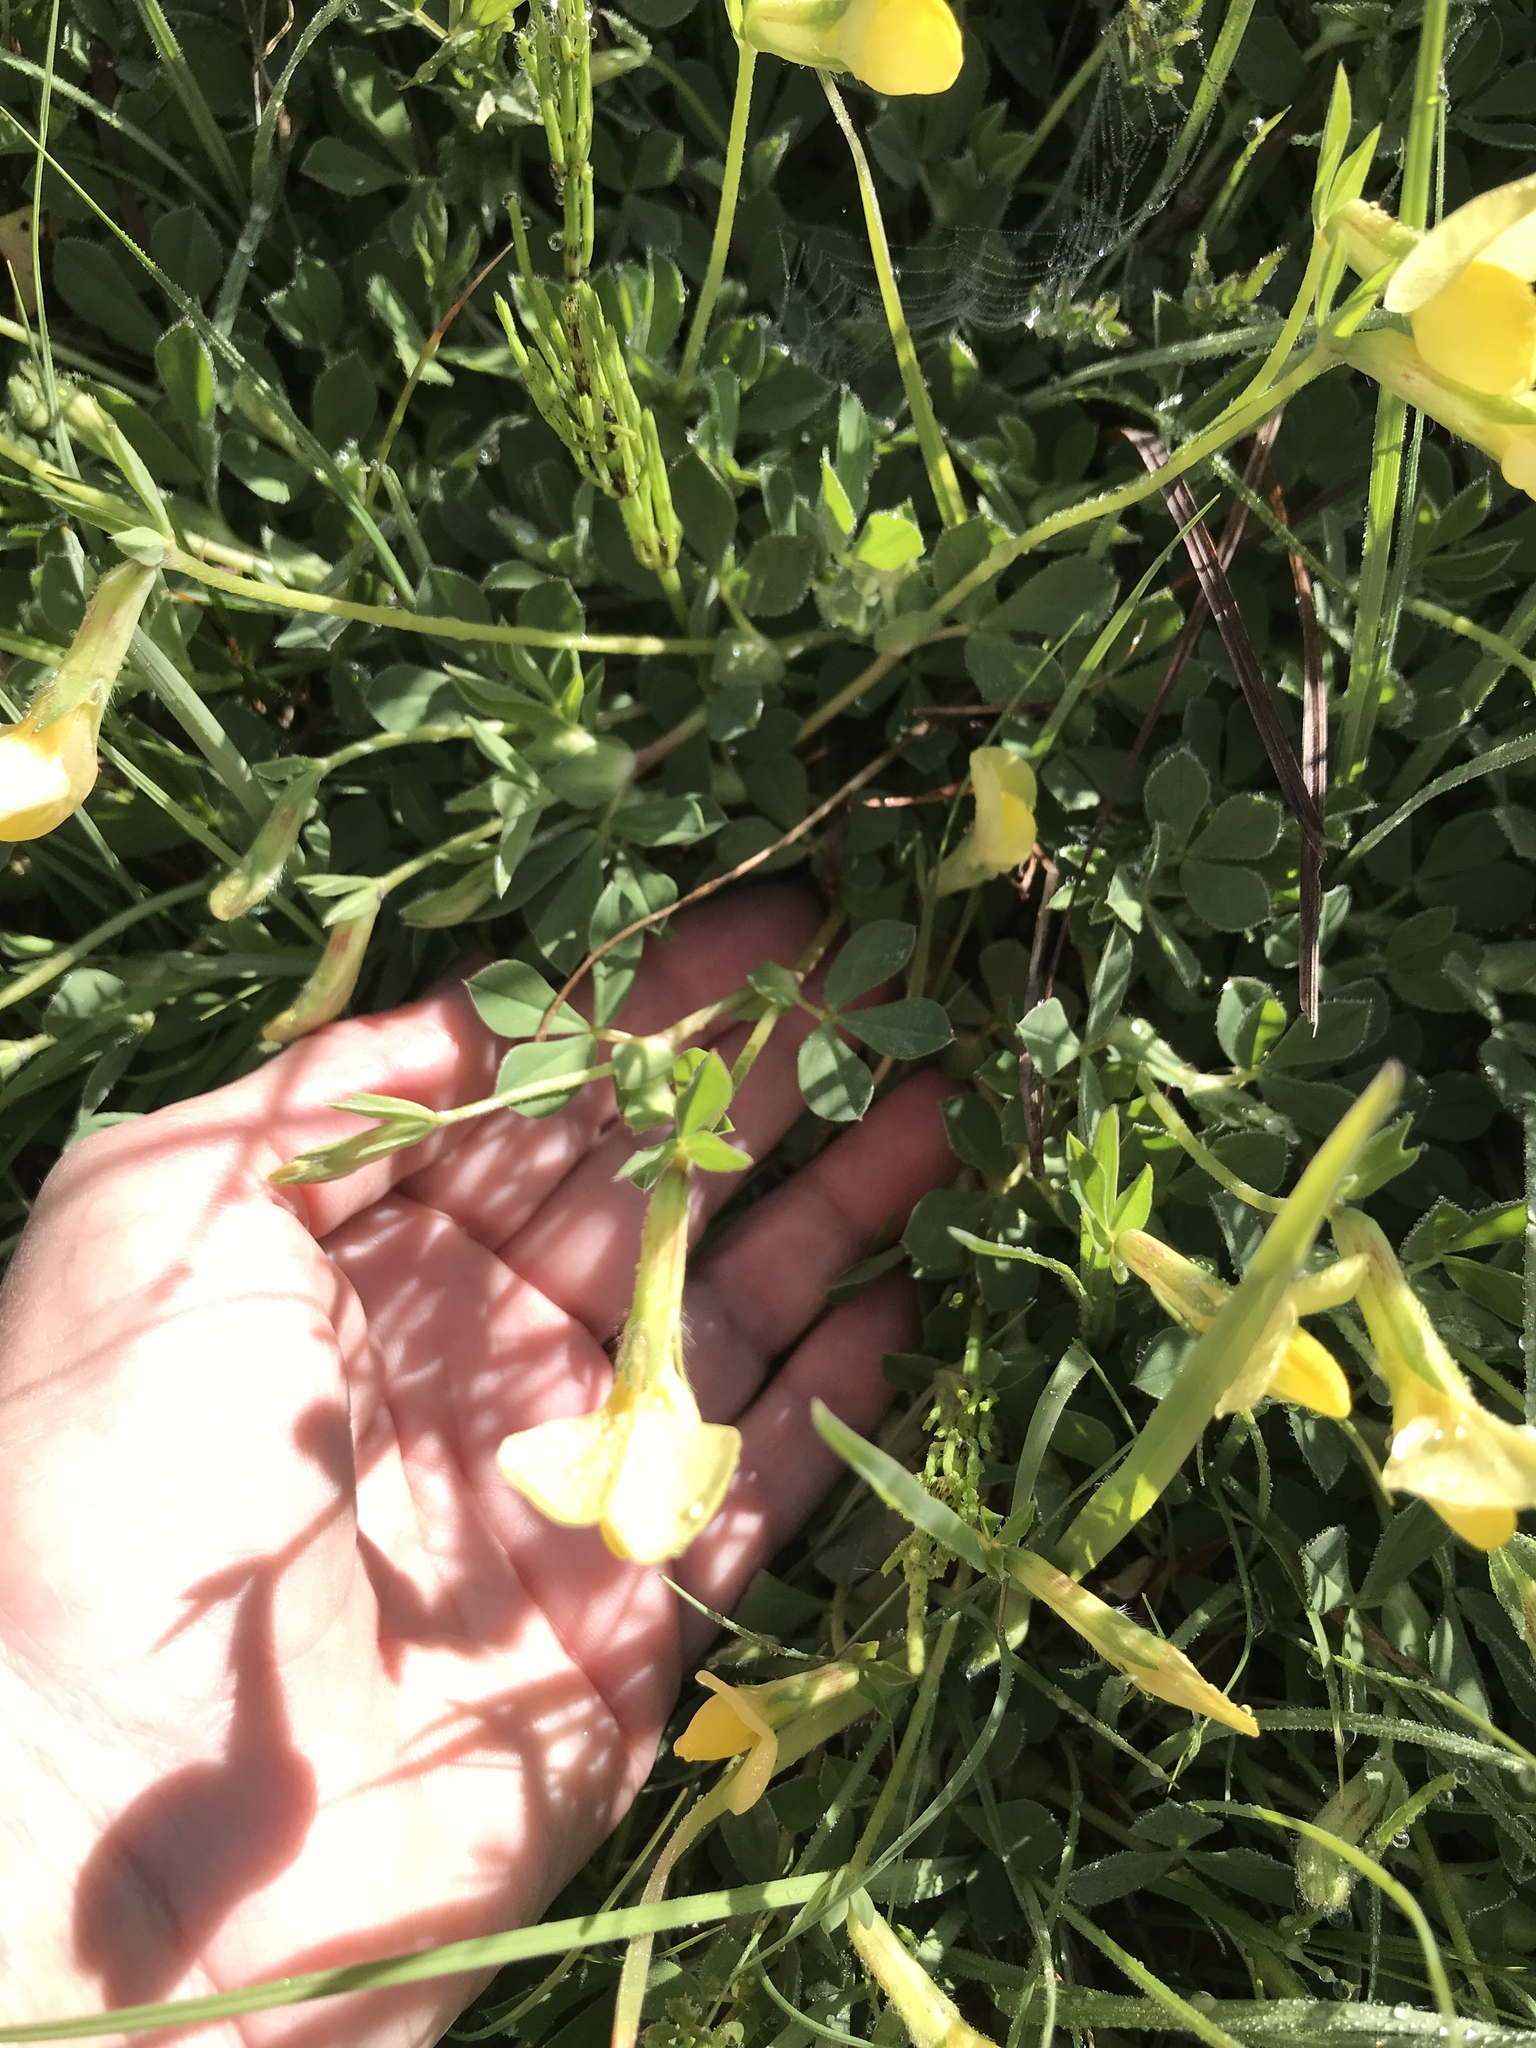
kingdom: Plantae
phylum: Tracheophyta
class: Magnoliopsida
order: Fabales
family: Fabaceae
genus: Lotus
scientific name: Lotus maritimus
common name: Dragon's-teeth
